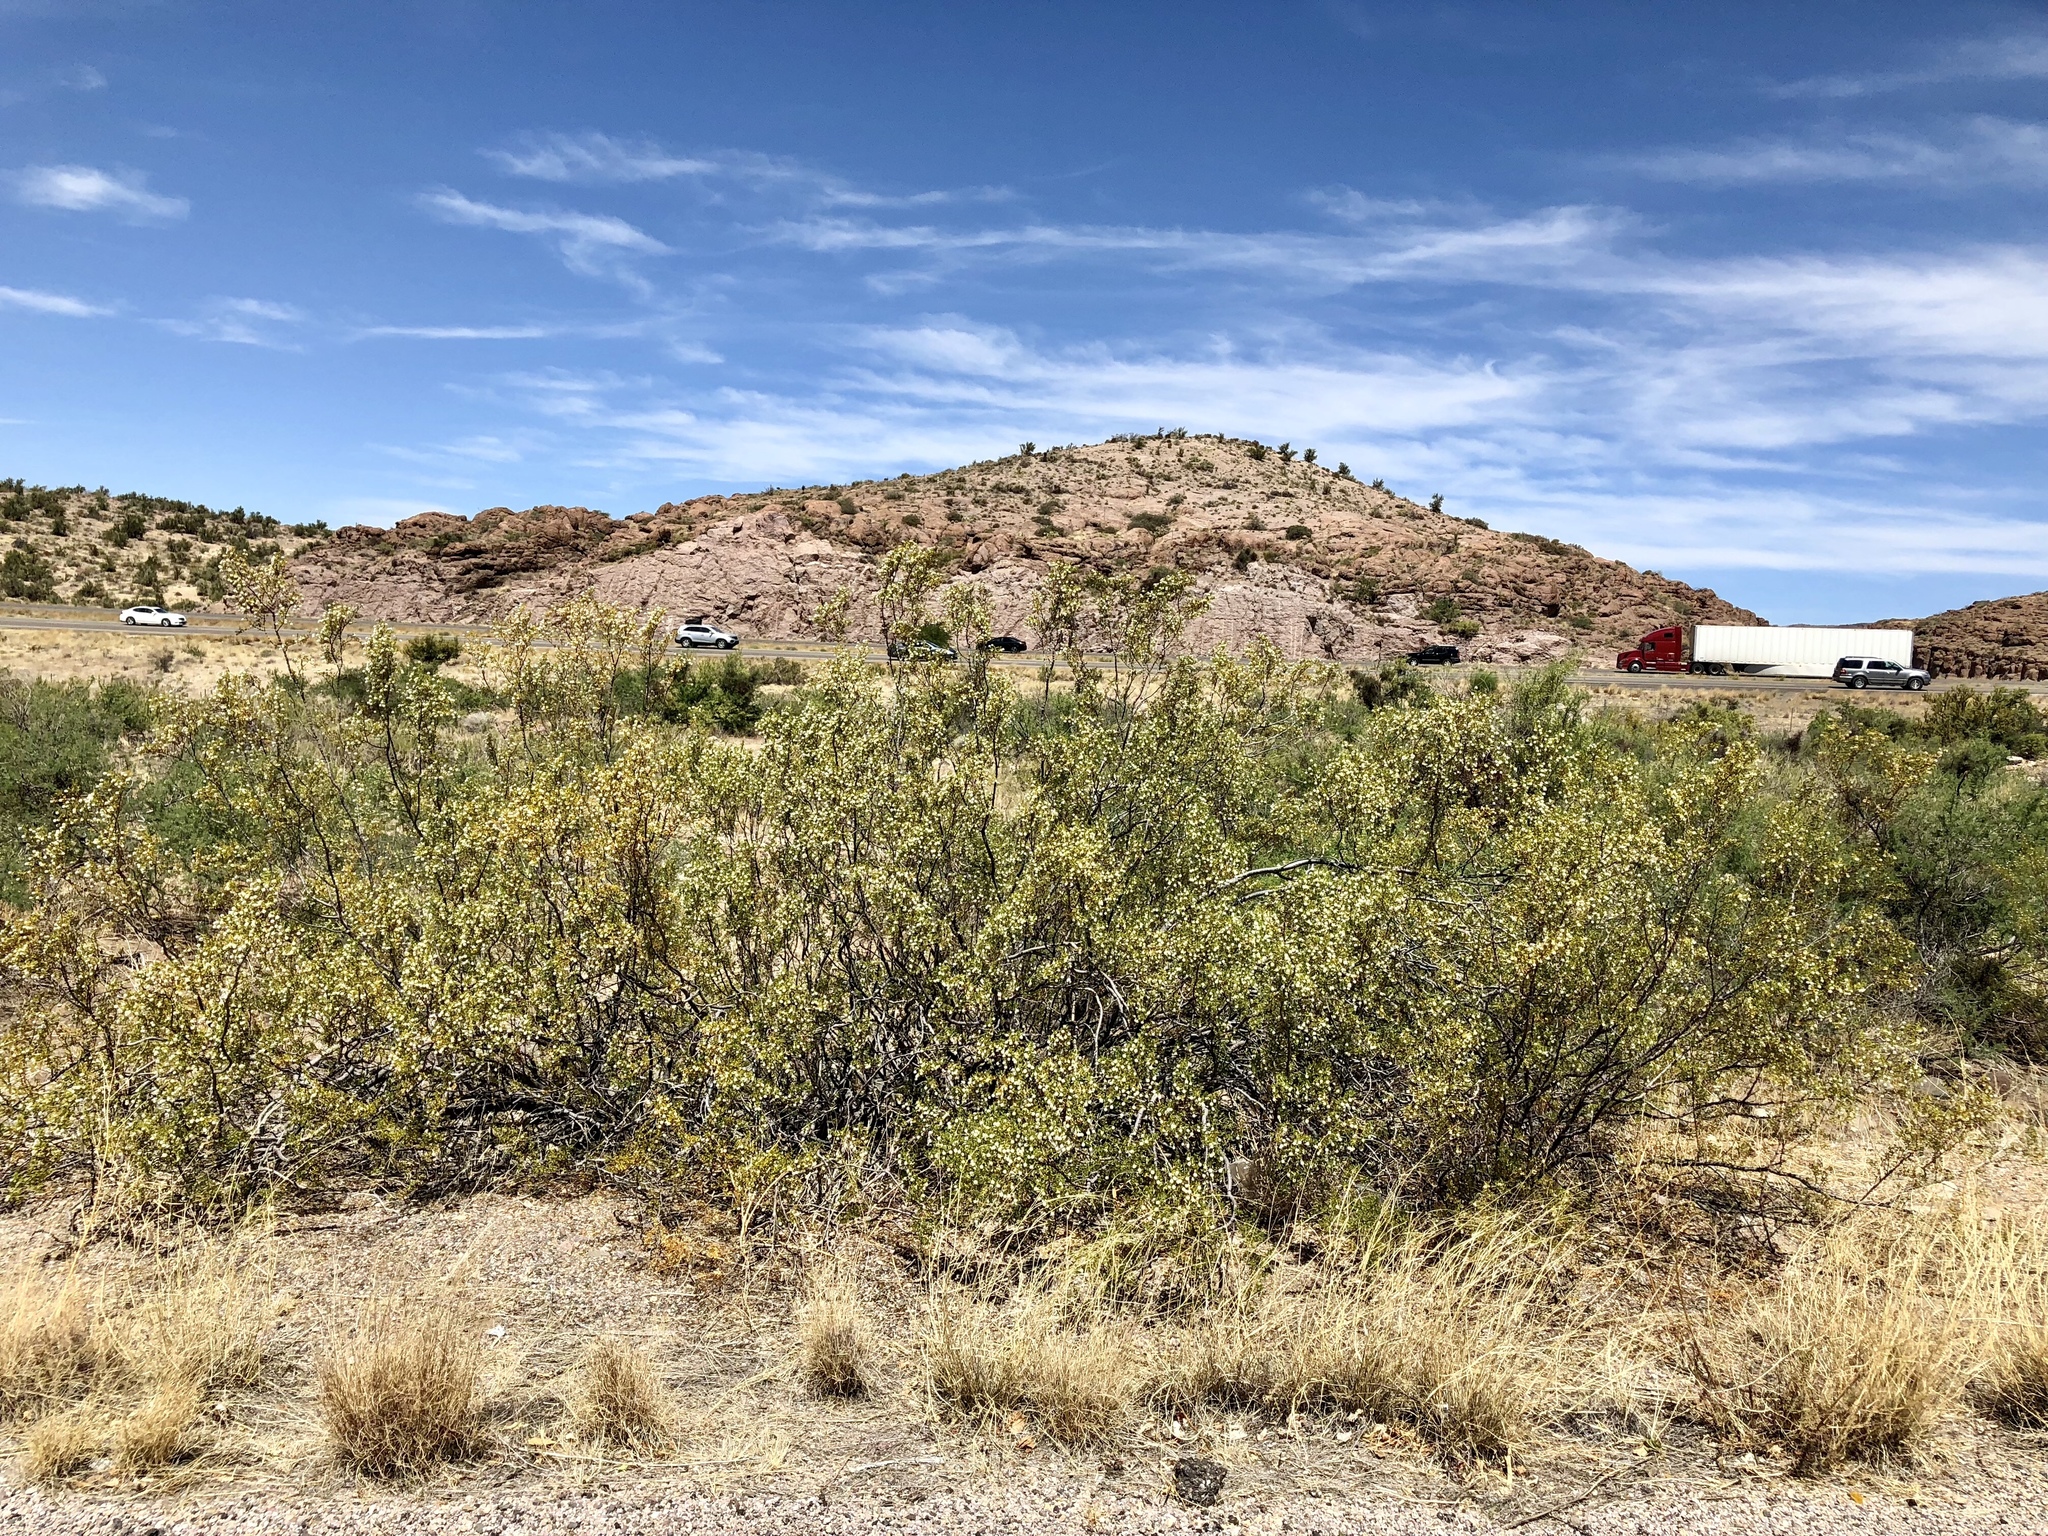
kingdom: Plantae
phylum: Tracheophyta
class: Magnoliopsida
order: Zygophyllales
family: Zygophyllaceae
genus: Larrea
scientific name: Larrea tridentata
